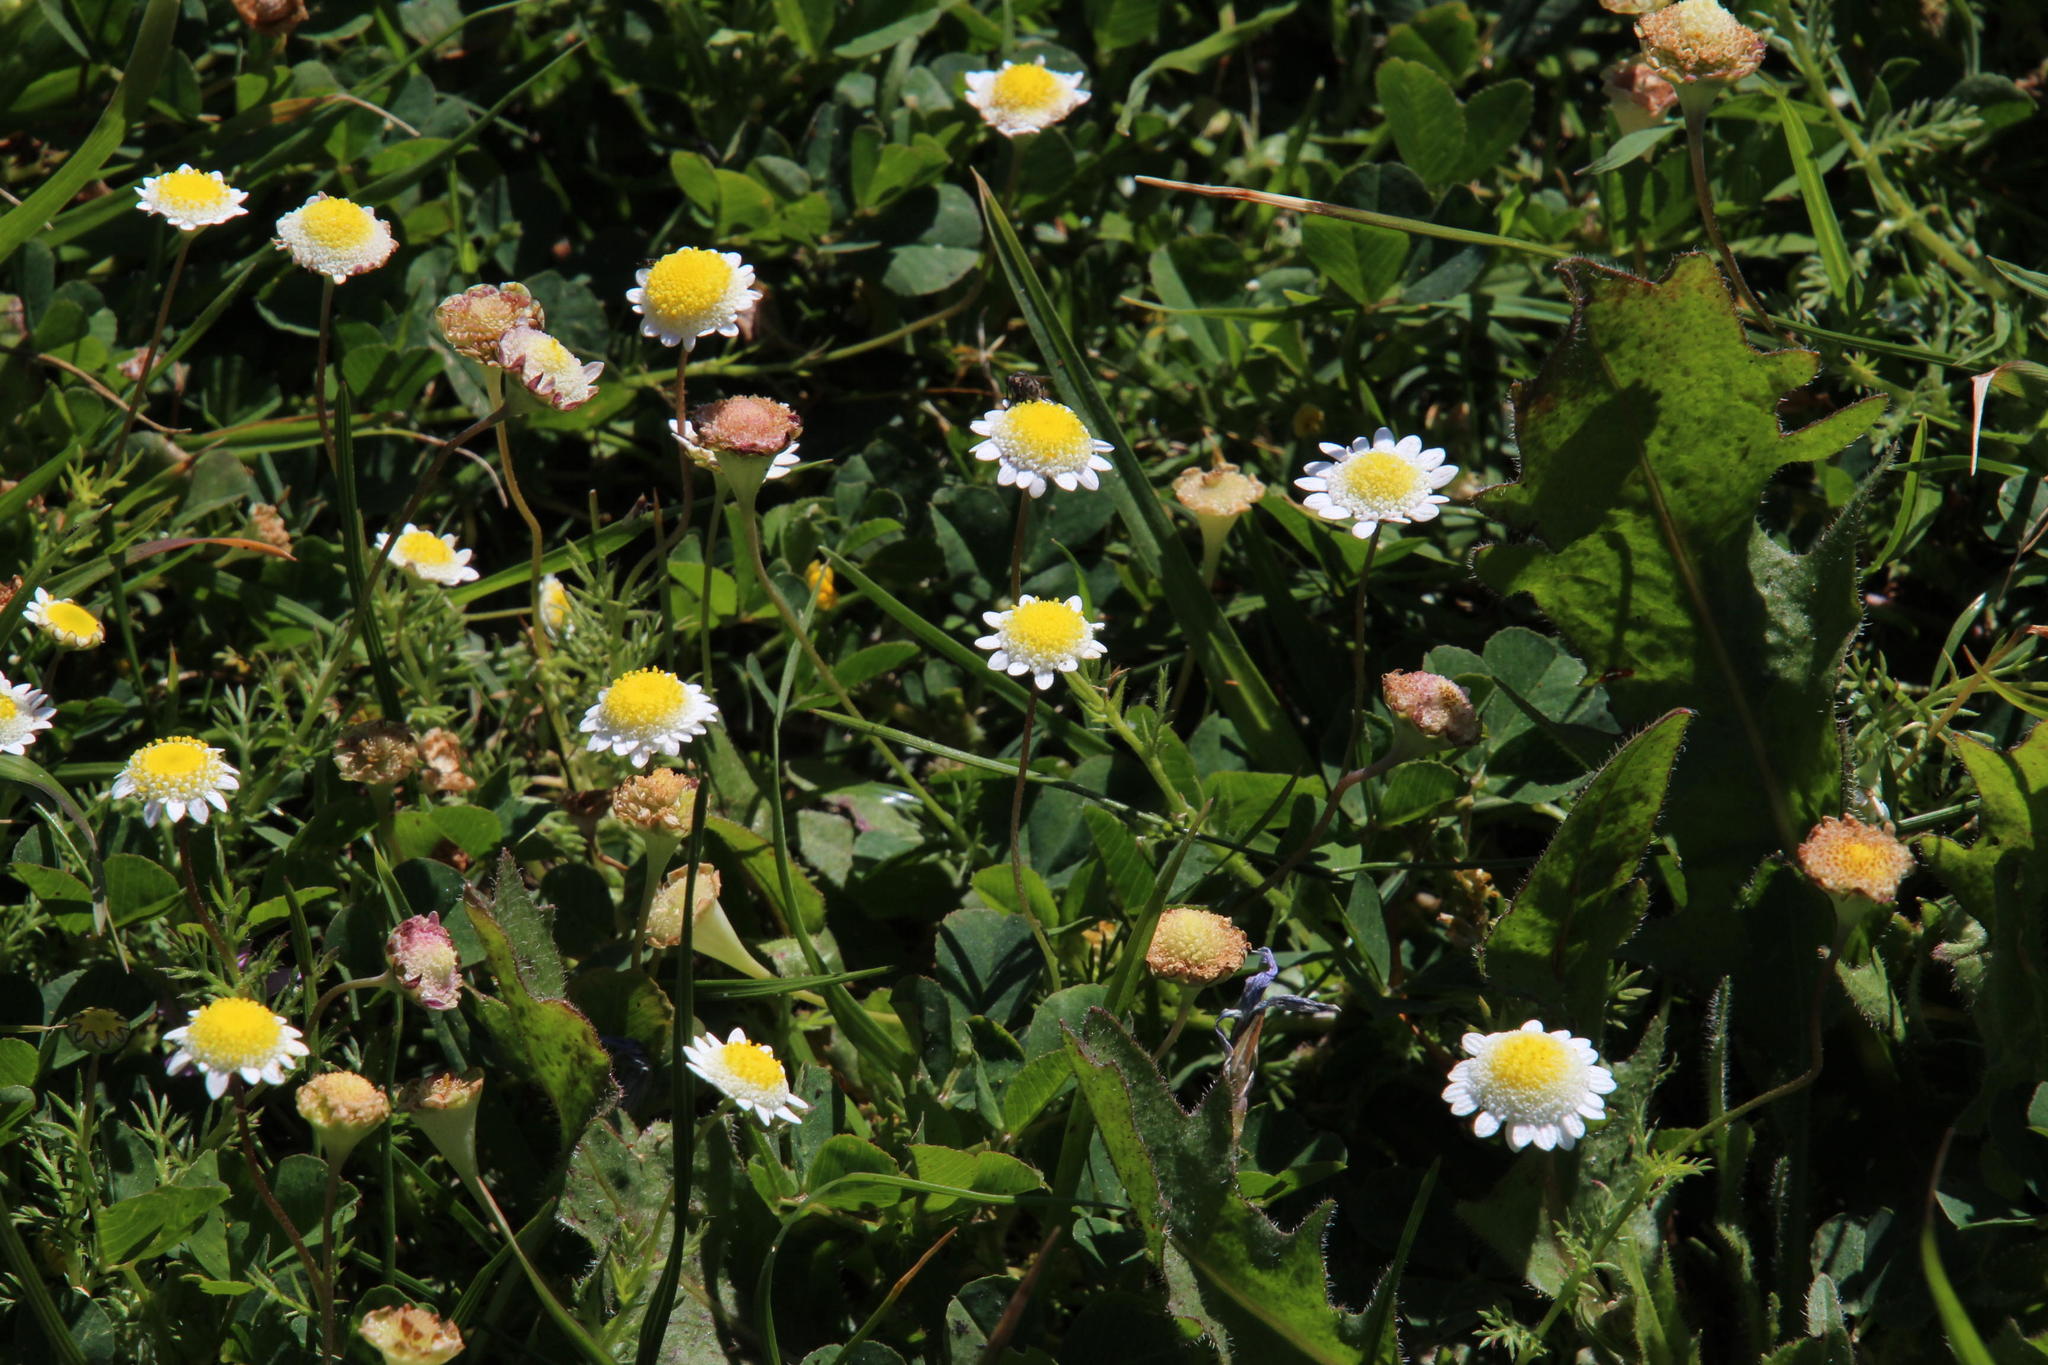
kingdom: Plantae
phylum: Tracheophyta
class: Magnoliopsida
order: Asterales
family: Asteraceae
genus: Cotula
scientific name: Cotula turbinata
